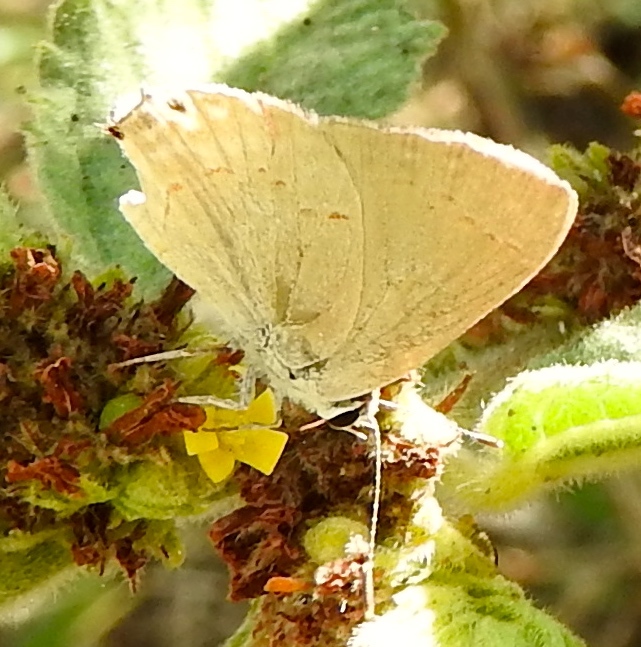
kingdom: Animalia
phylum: Arthropoda
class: Insecta
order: Lepidoptera
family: Lycaenidae
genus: Thecla
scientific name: Thecla rufofusca
